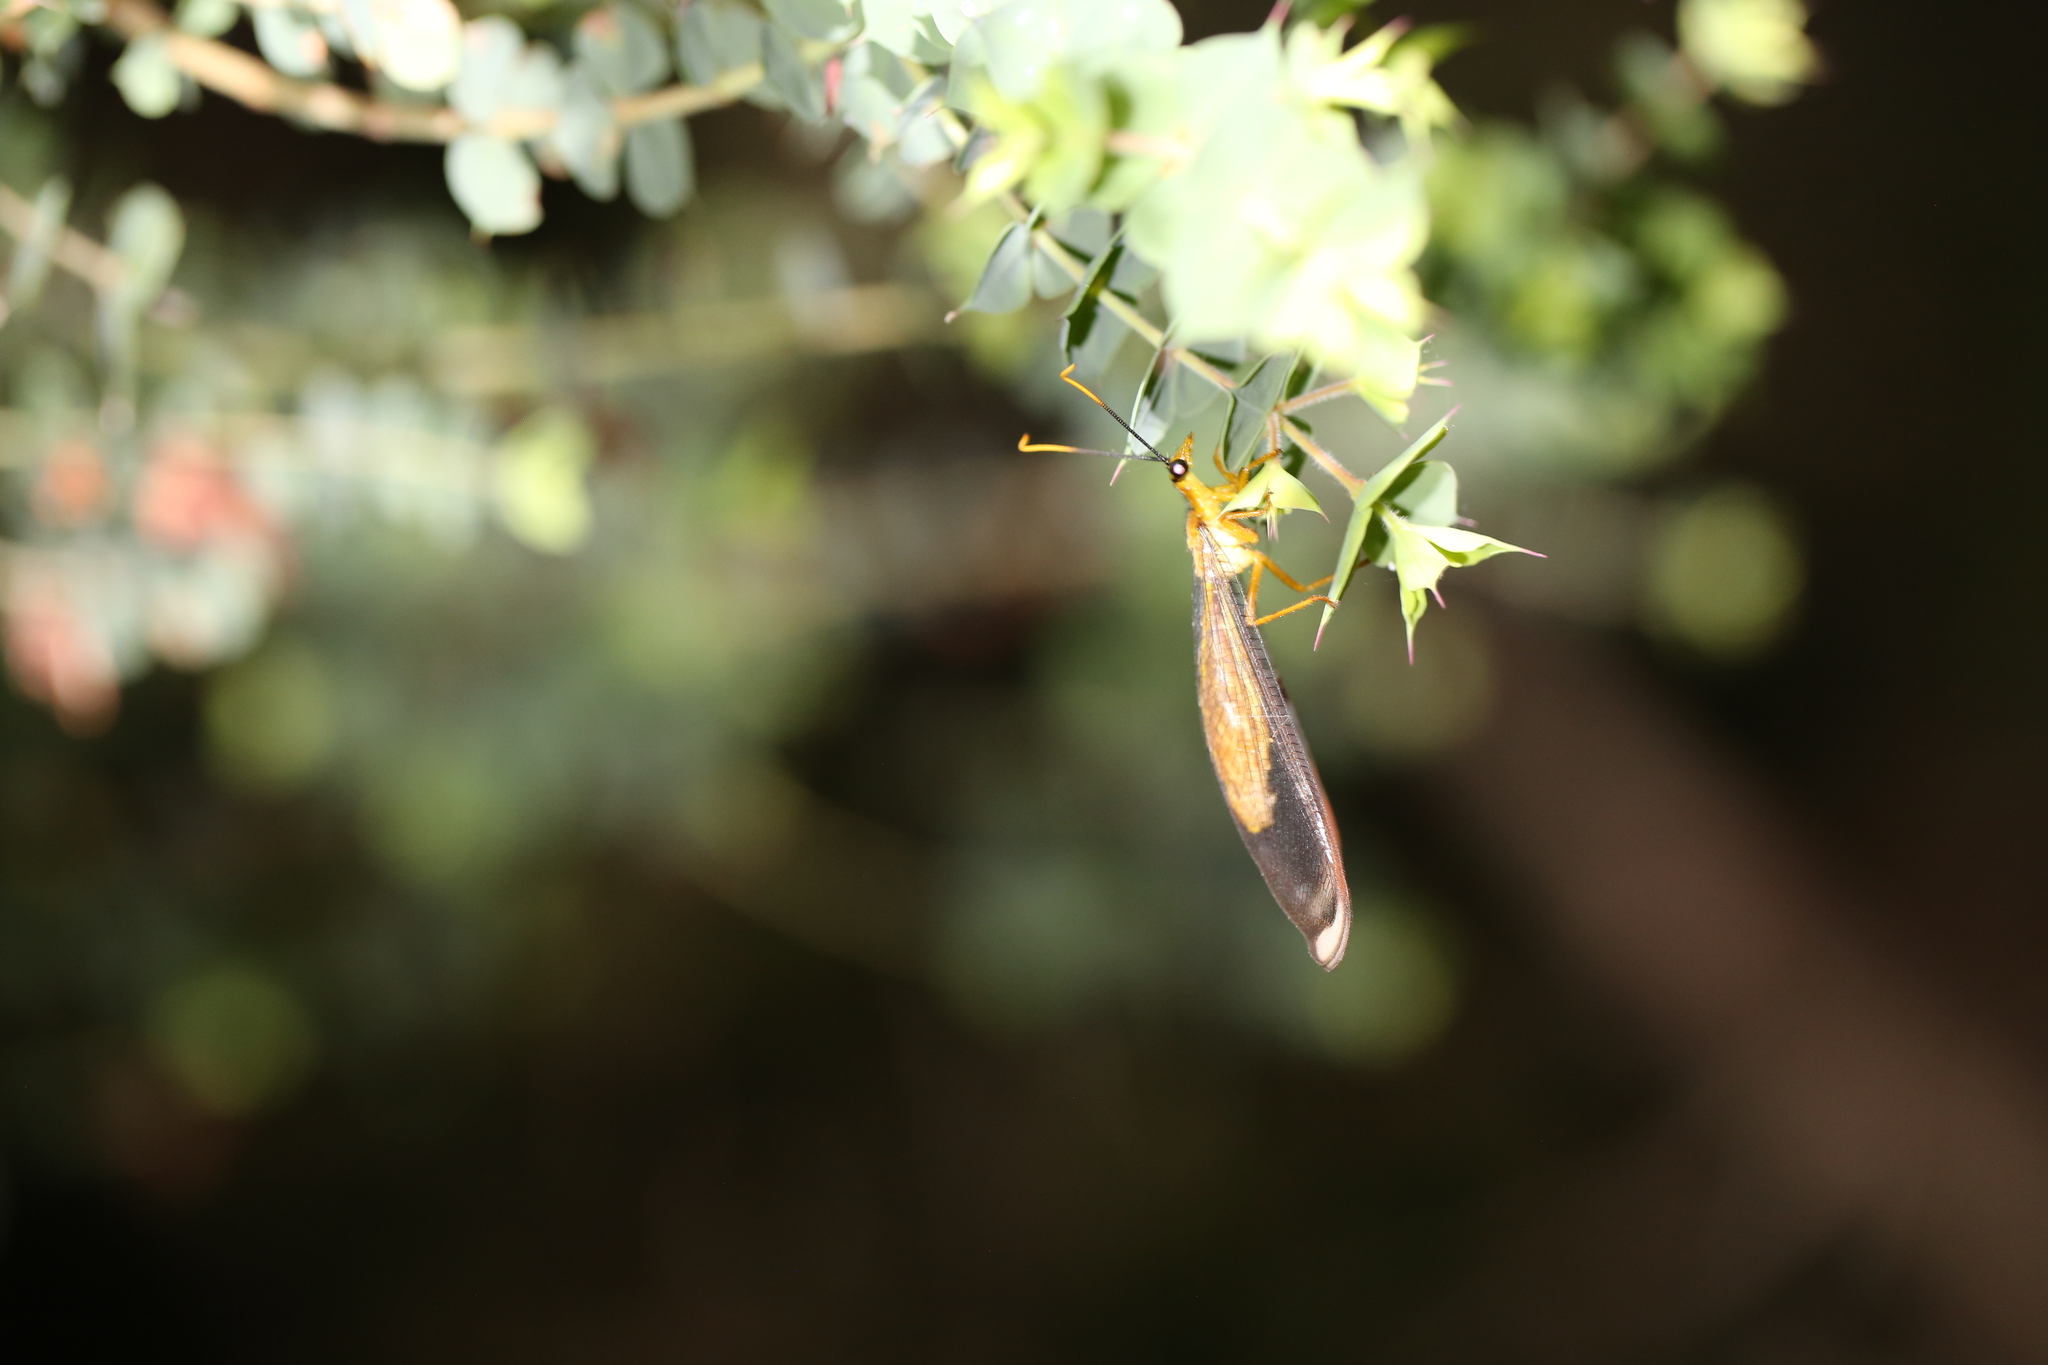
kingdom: Animalia
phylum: Arthropoda
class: Insecta
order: Neuroptera
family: Nymphidae
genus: Nymphes
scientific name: Nymphes myrmeleonoides
